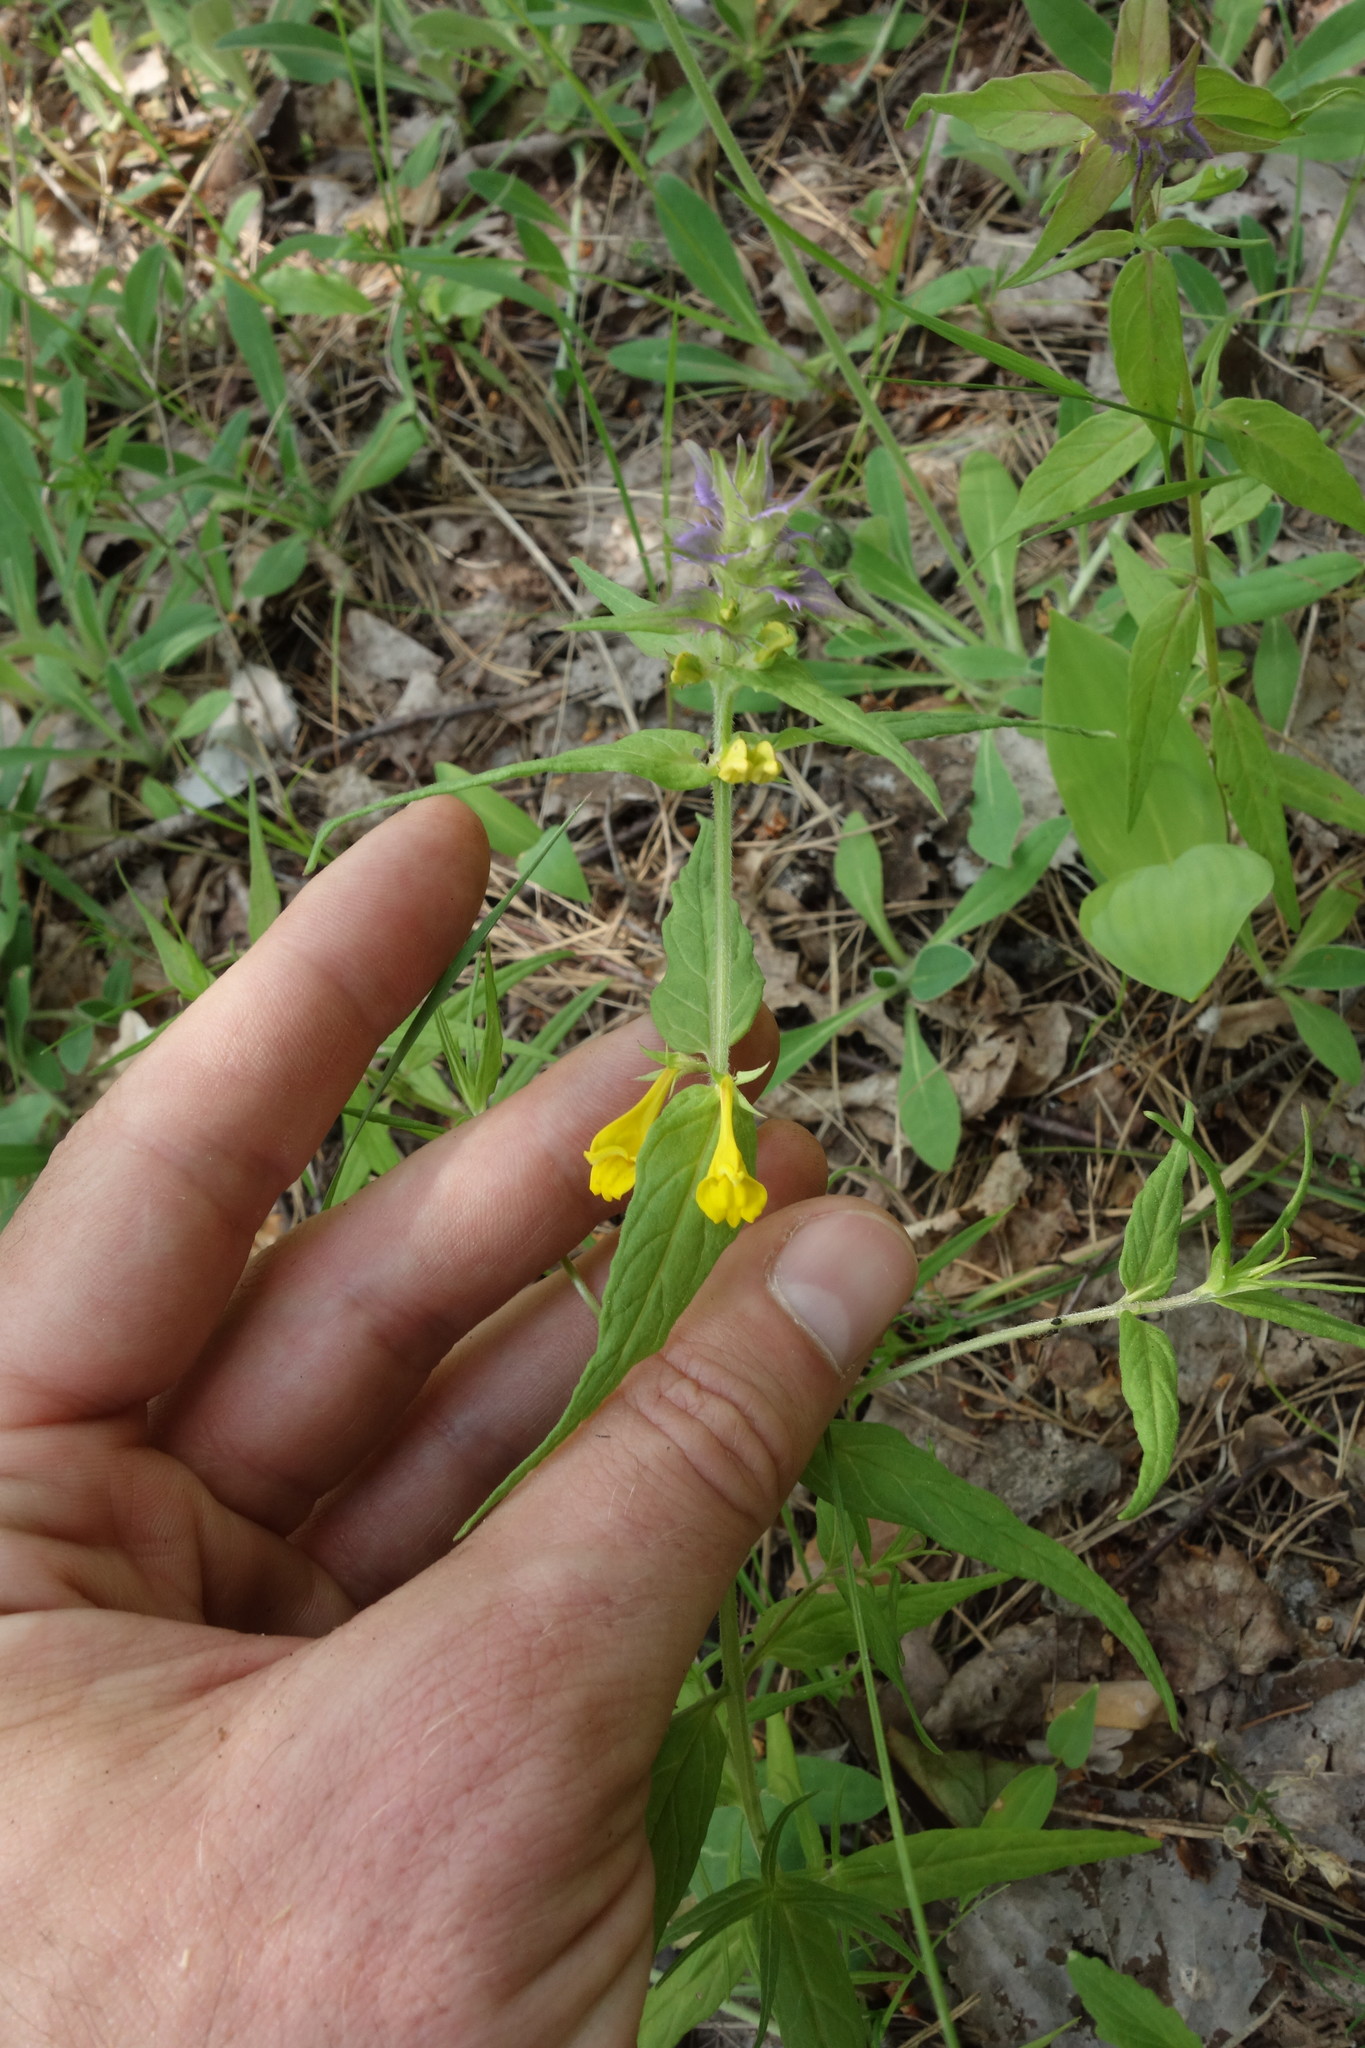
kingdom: Plantae
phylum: Tracheophyta
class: Magnoliopsida
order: Lamiales
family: Orobanchaceae
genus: Melampyrum
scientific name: Melampyrum nemorosum
